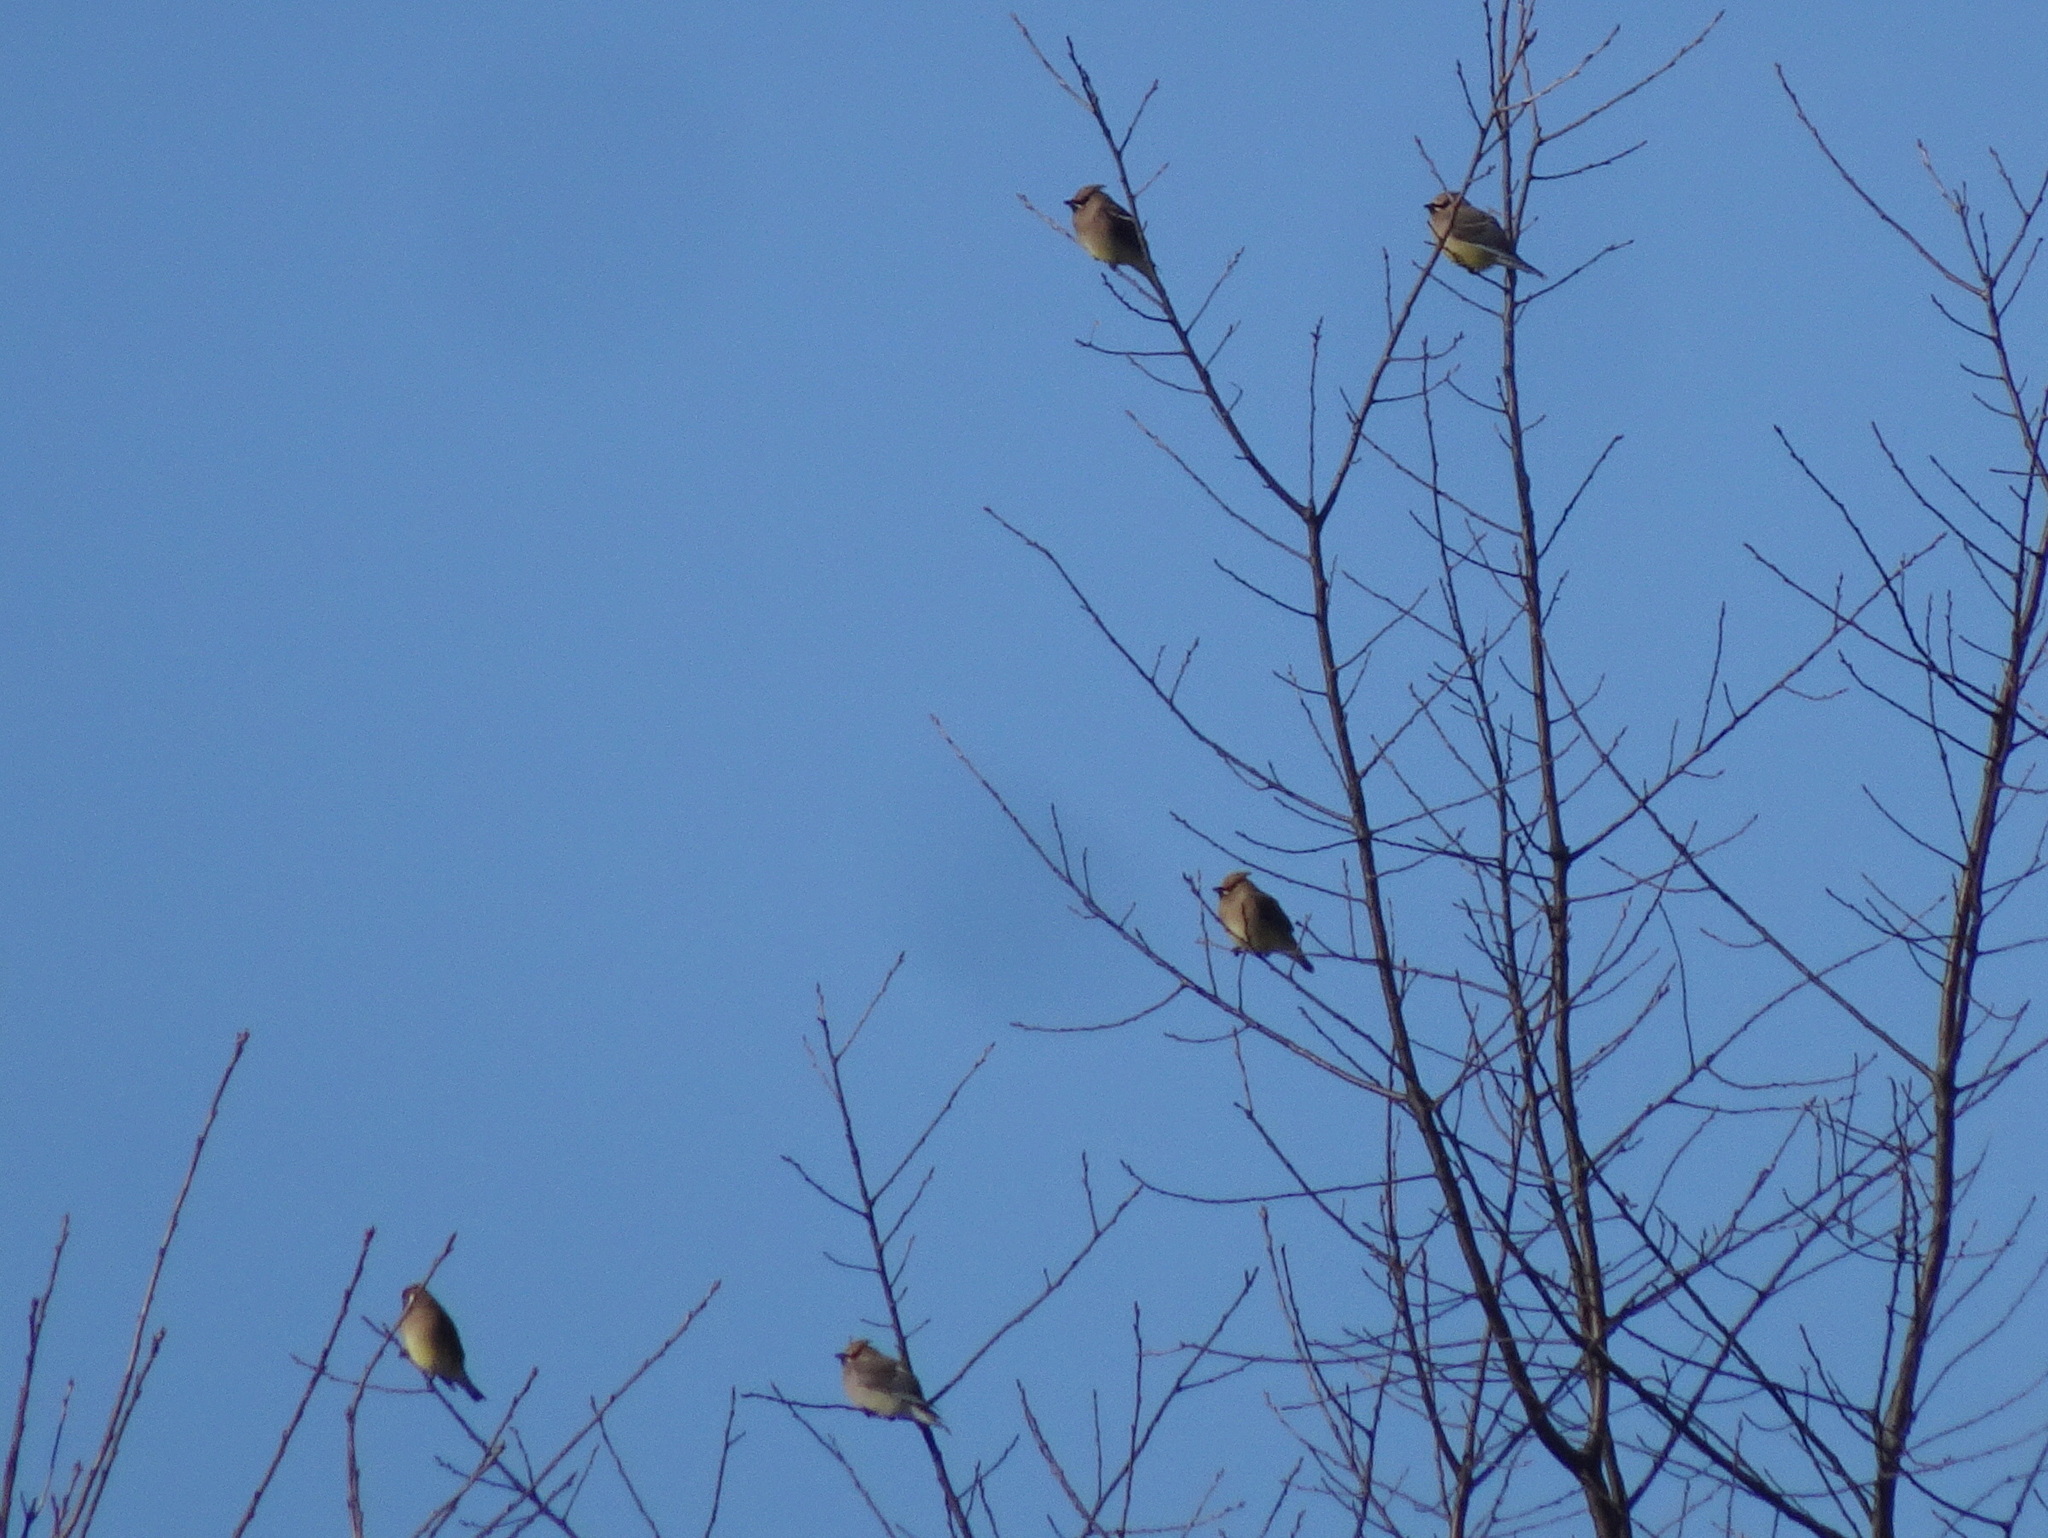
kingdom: Animalia
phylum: Chordata
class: Aves
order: Passeriformes
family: Bombycillidae
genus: Bombycilla
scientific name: Bombycilla cedrorum
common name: Cedar waxwing
